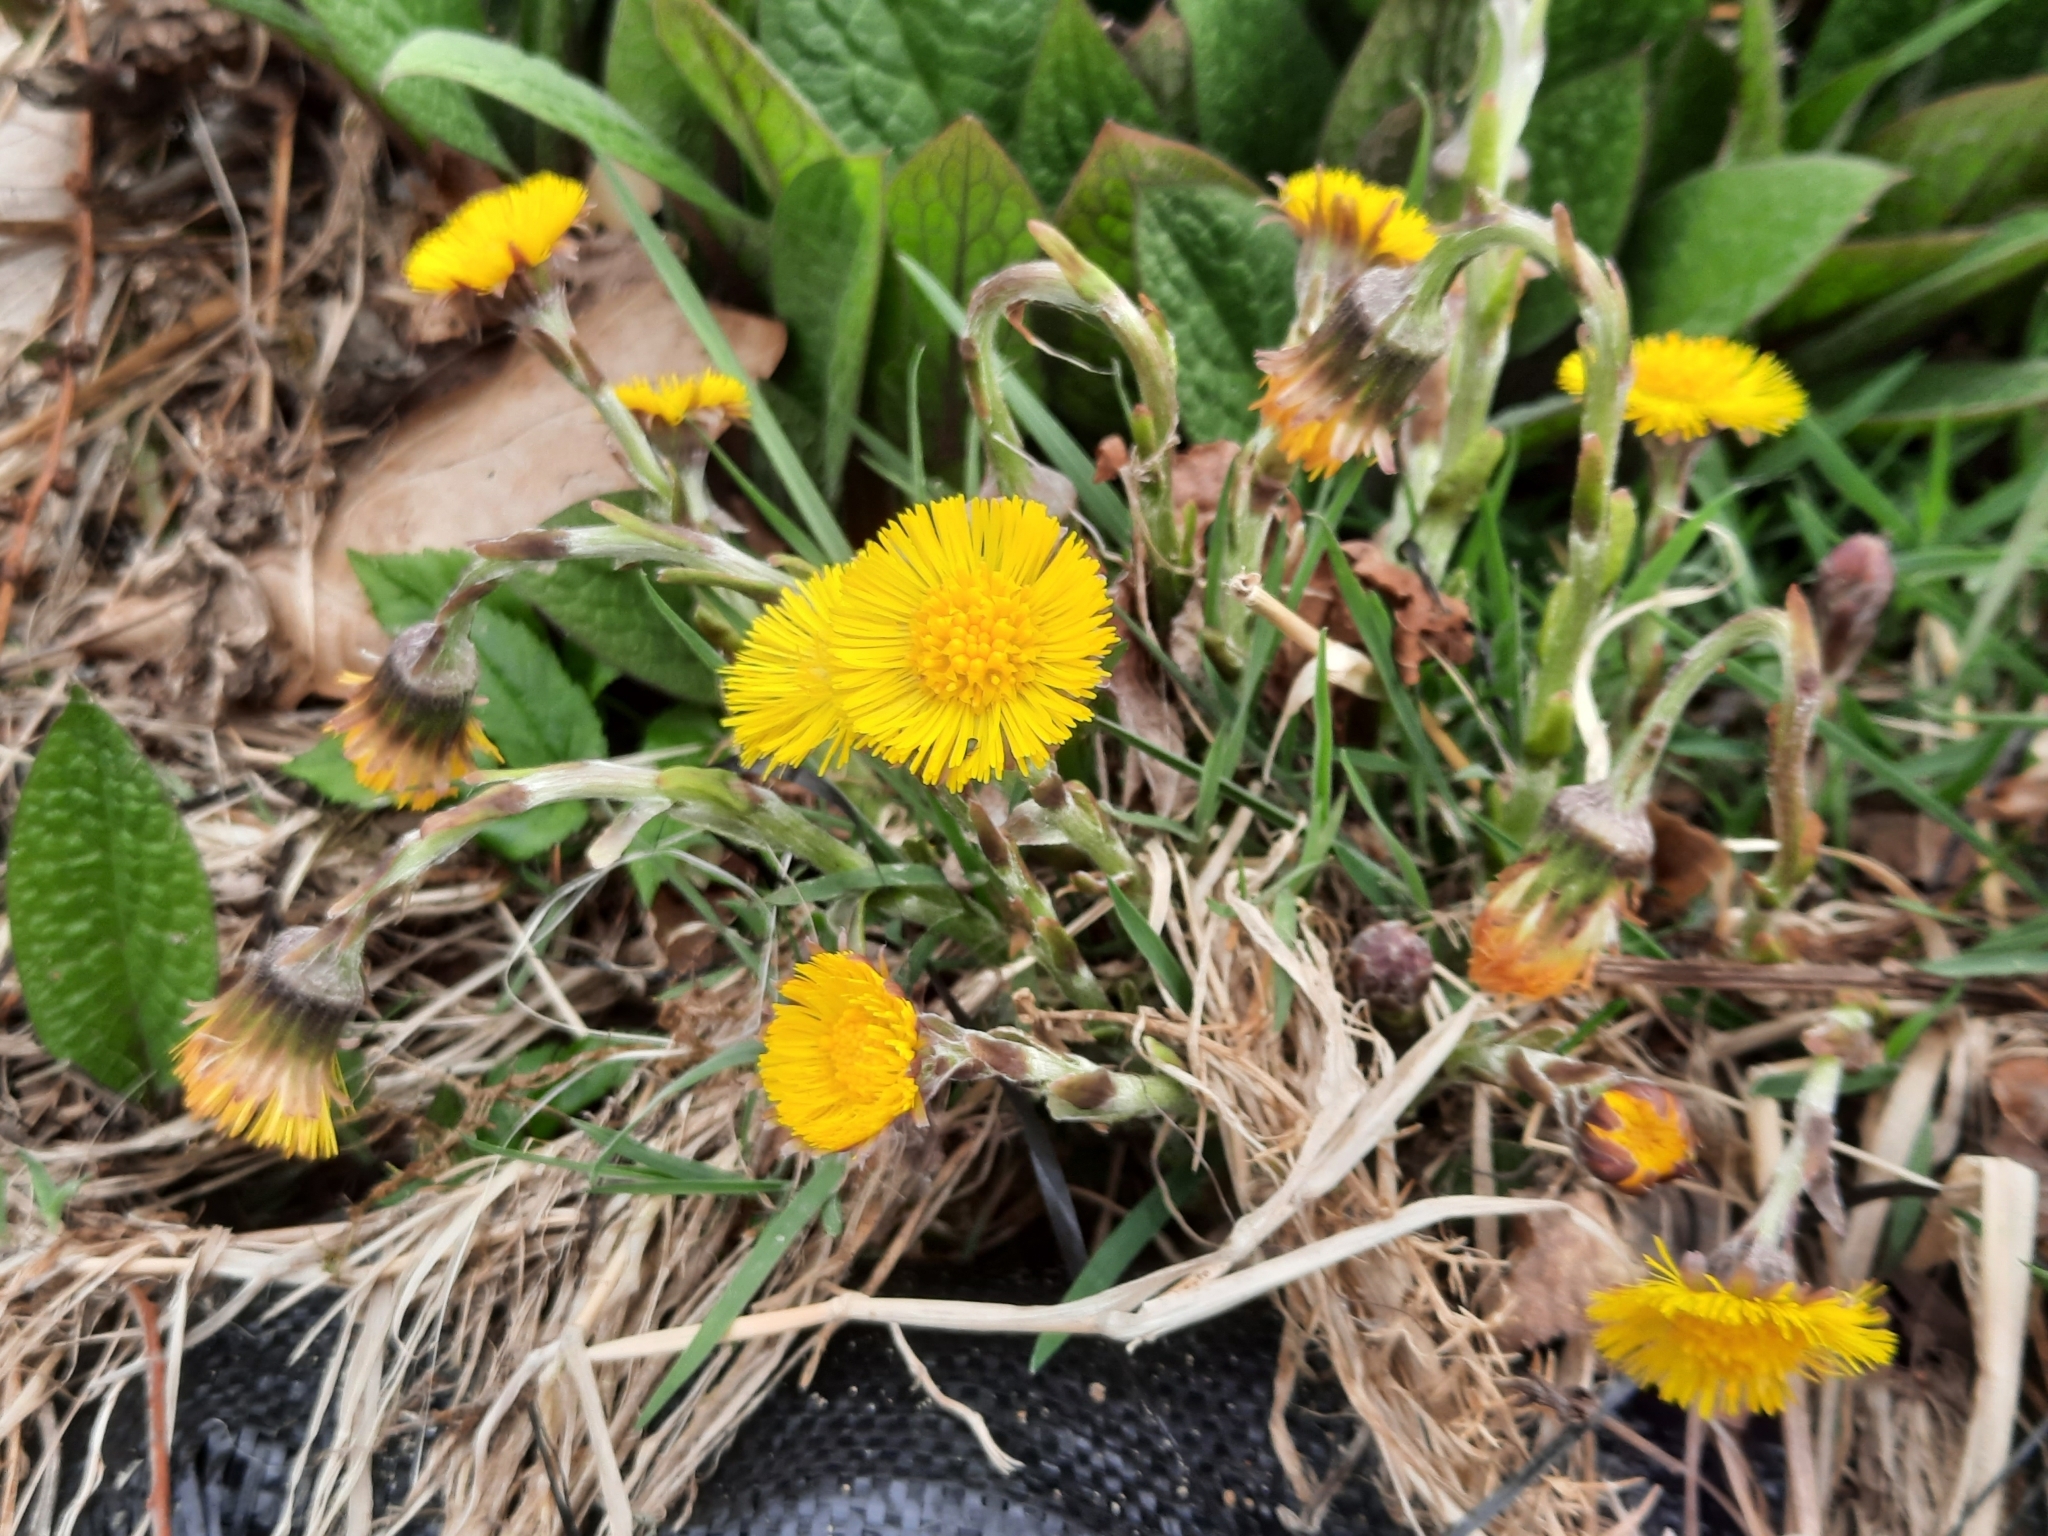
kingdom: Plantae
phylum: Tracheophyta
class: Magnoliopsida
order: Asterales
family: Asteraceae
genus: Tussilago
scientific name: Tussilago farfara
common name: Coltsfoot
